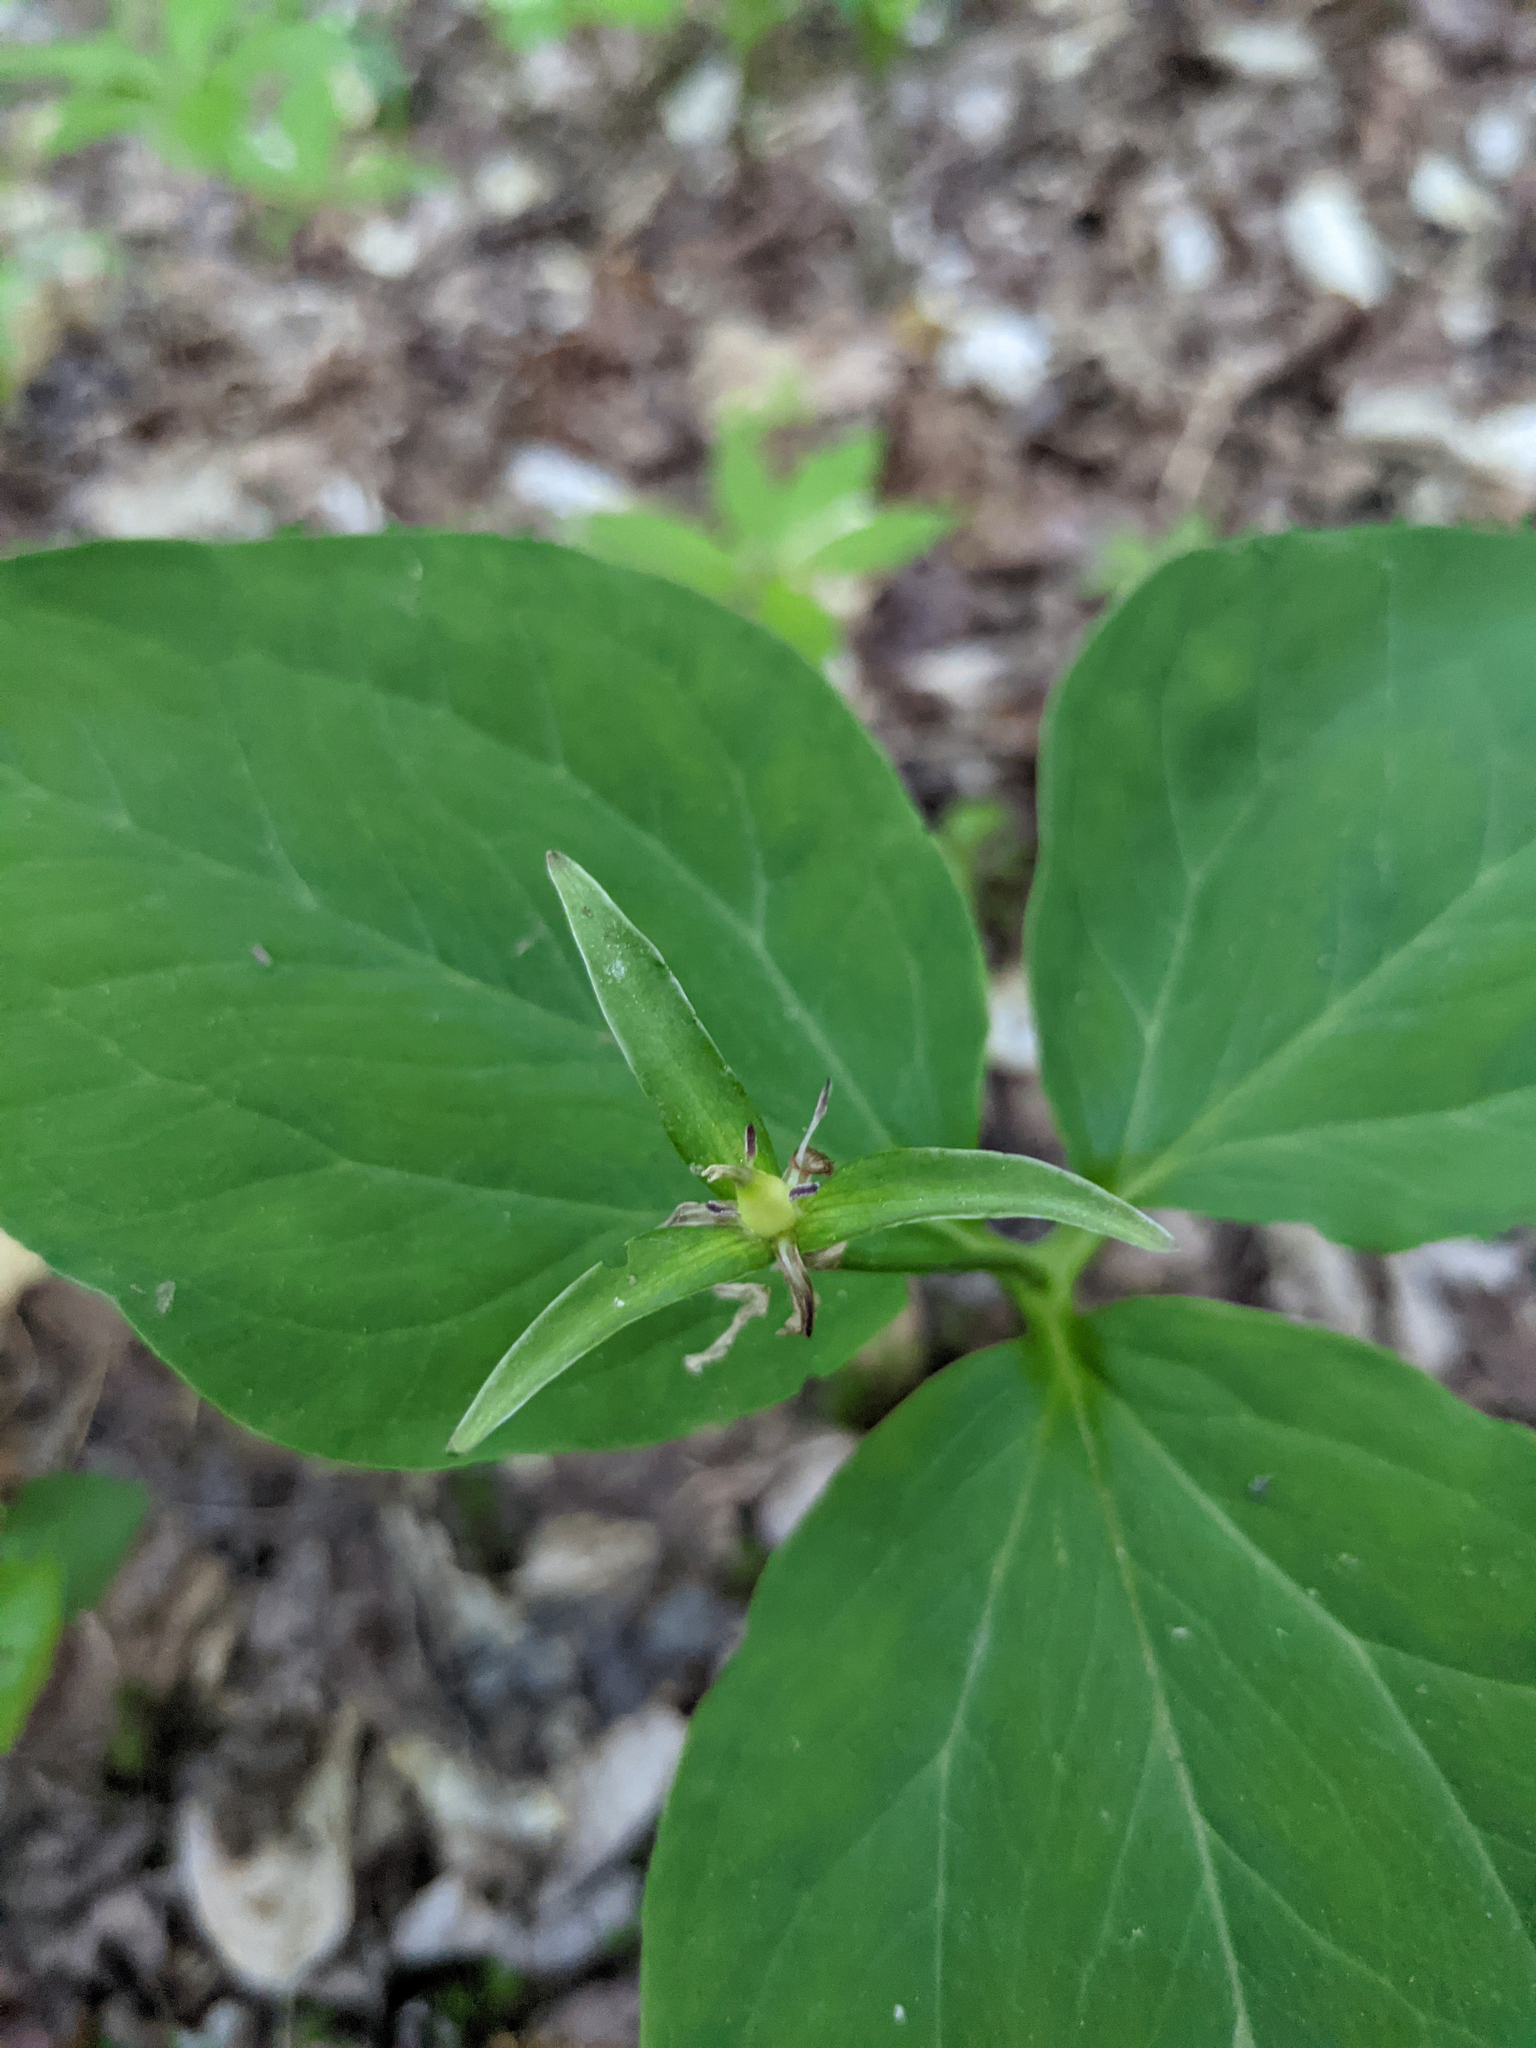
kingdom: Plantae
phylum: Tracheophyta
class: Liliopsida
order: Liliales
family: Melanthiaceae
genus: Trillium
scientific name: Trillium undulatum
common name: Paint trillium
